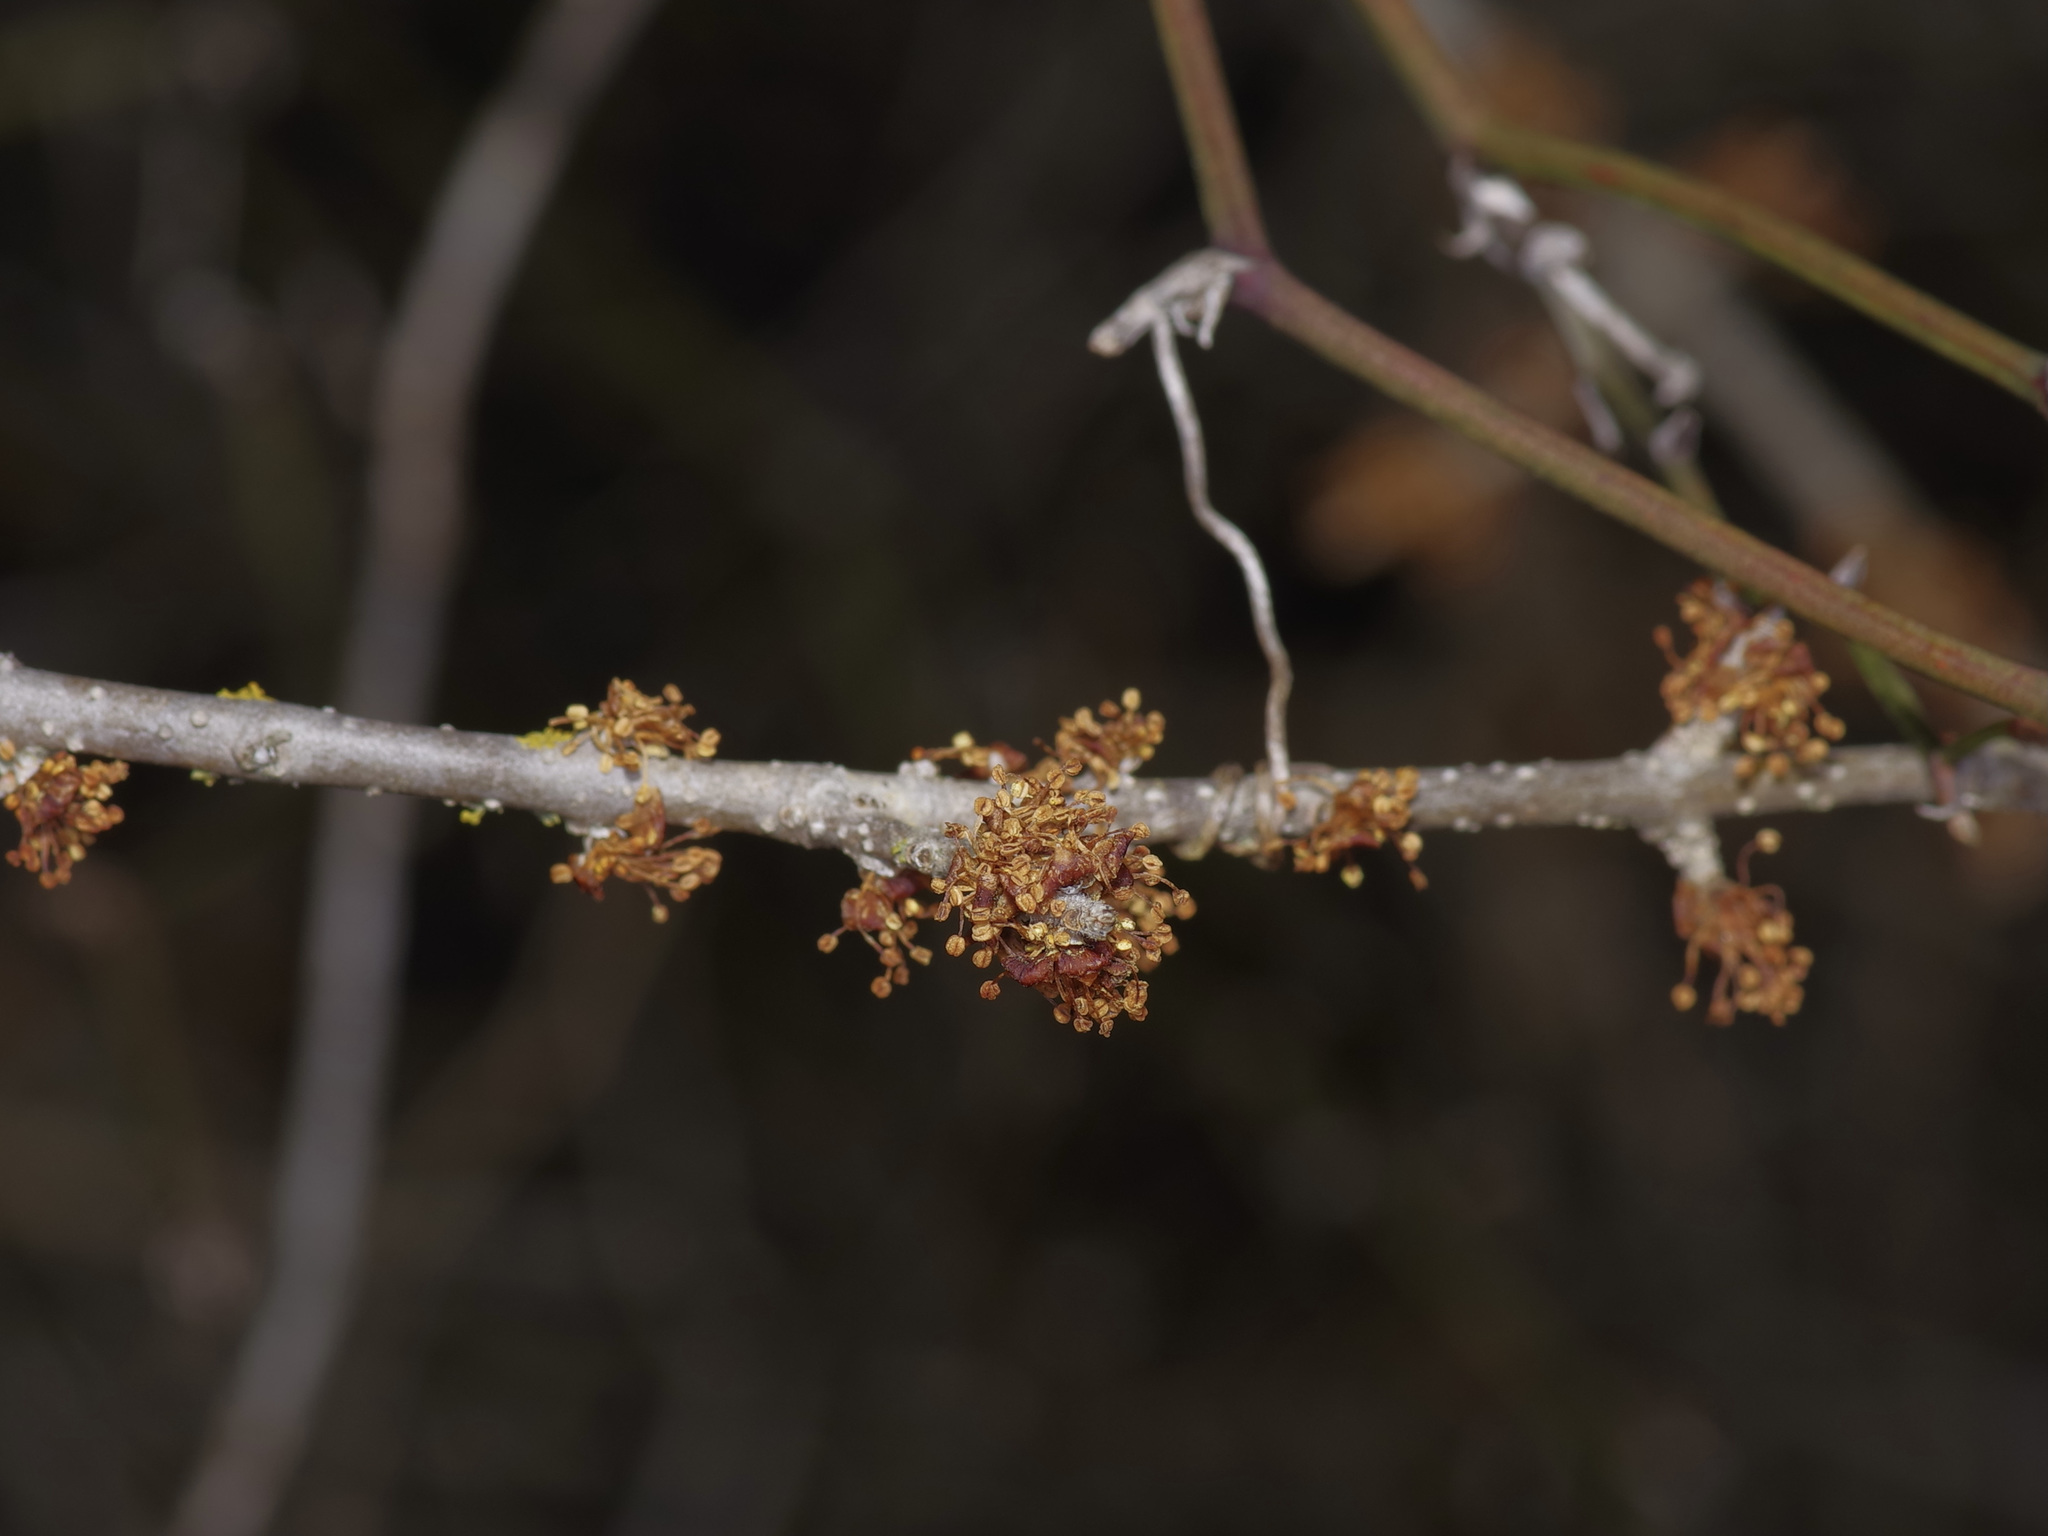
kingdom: Plantae
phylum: Tracheophyta
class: Magnoliopsida
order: Lamiales
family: Oleaceae
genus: Forestiera
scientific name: Forestiera pubescens
